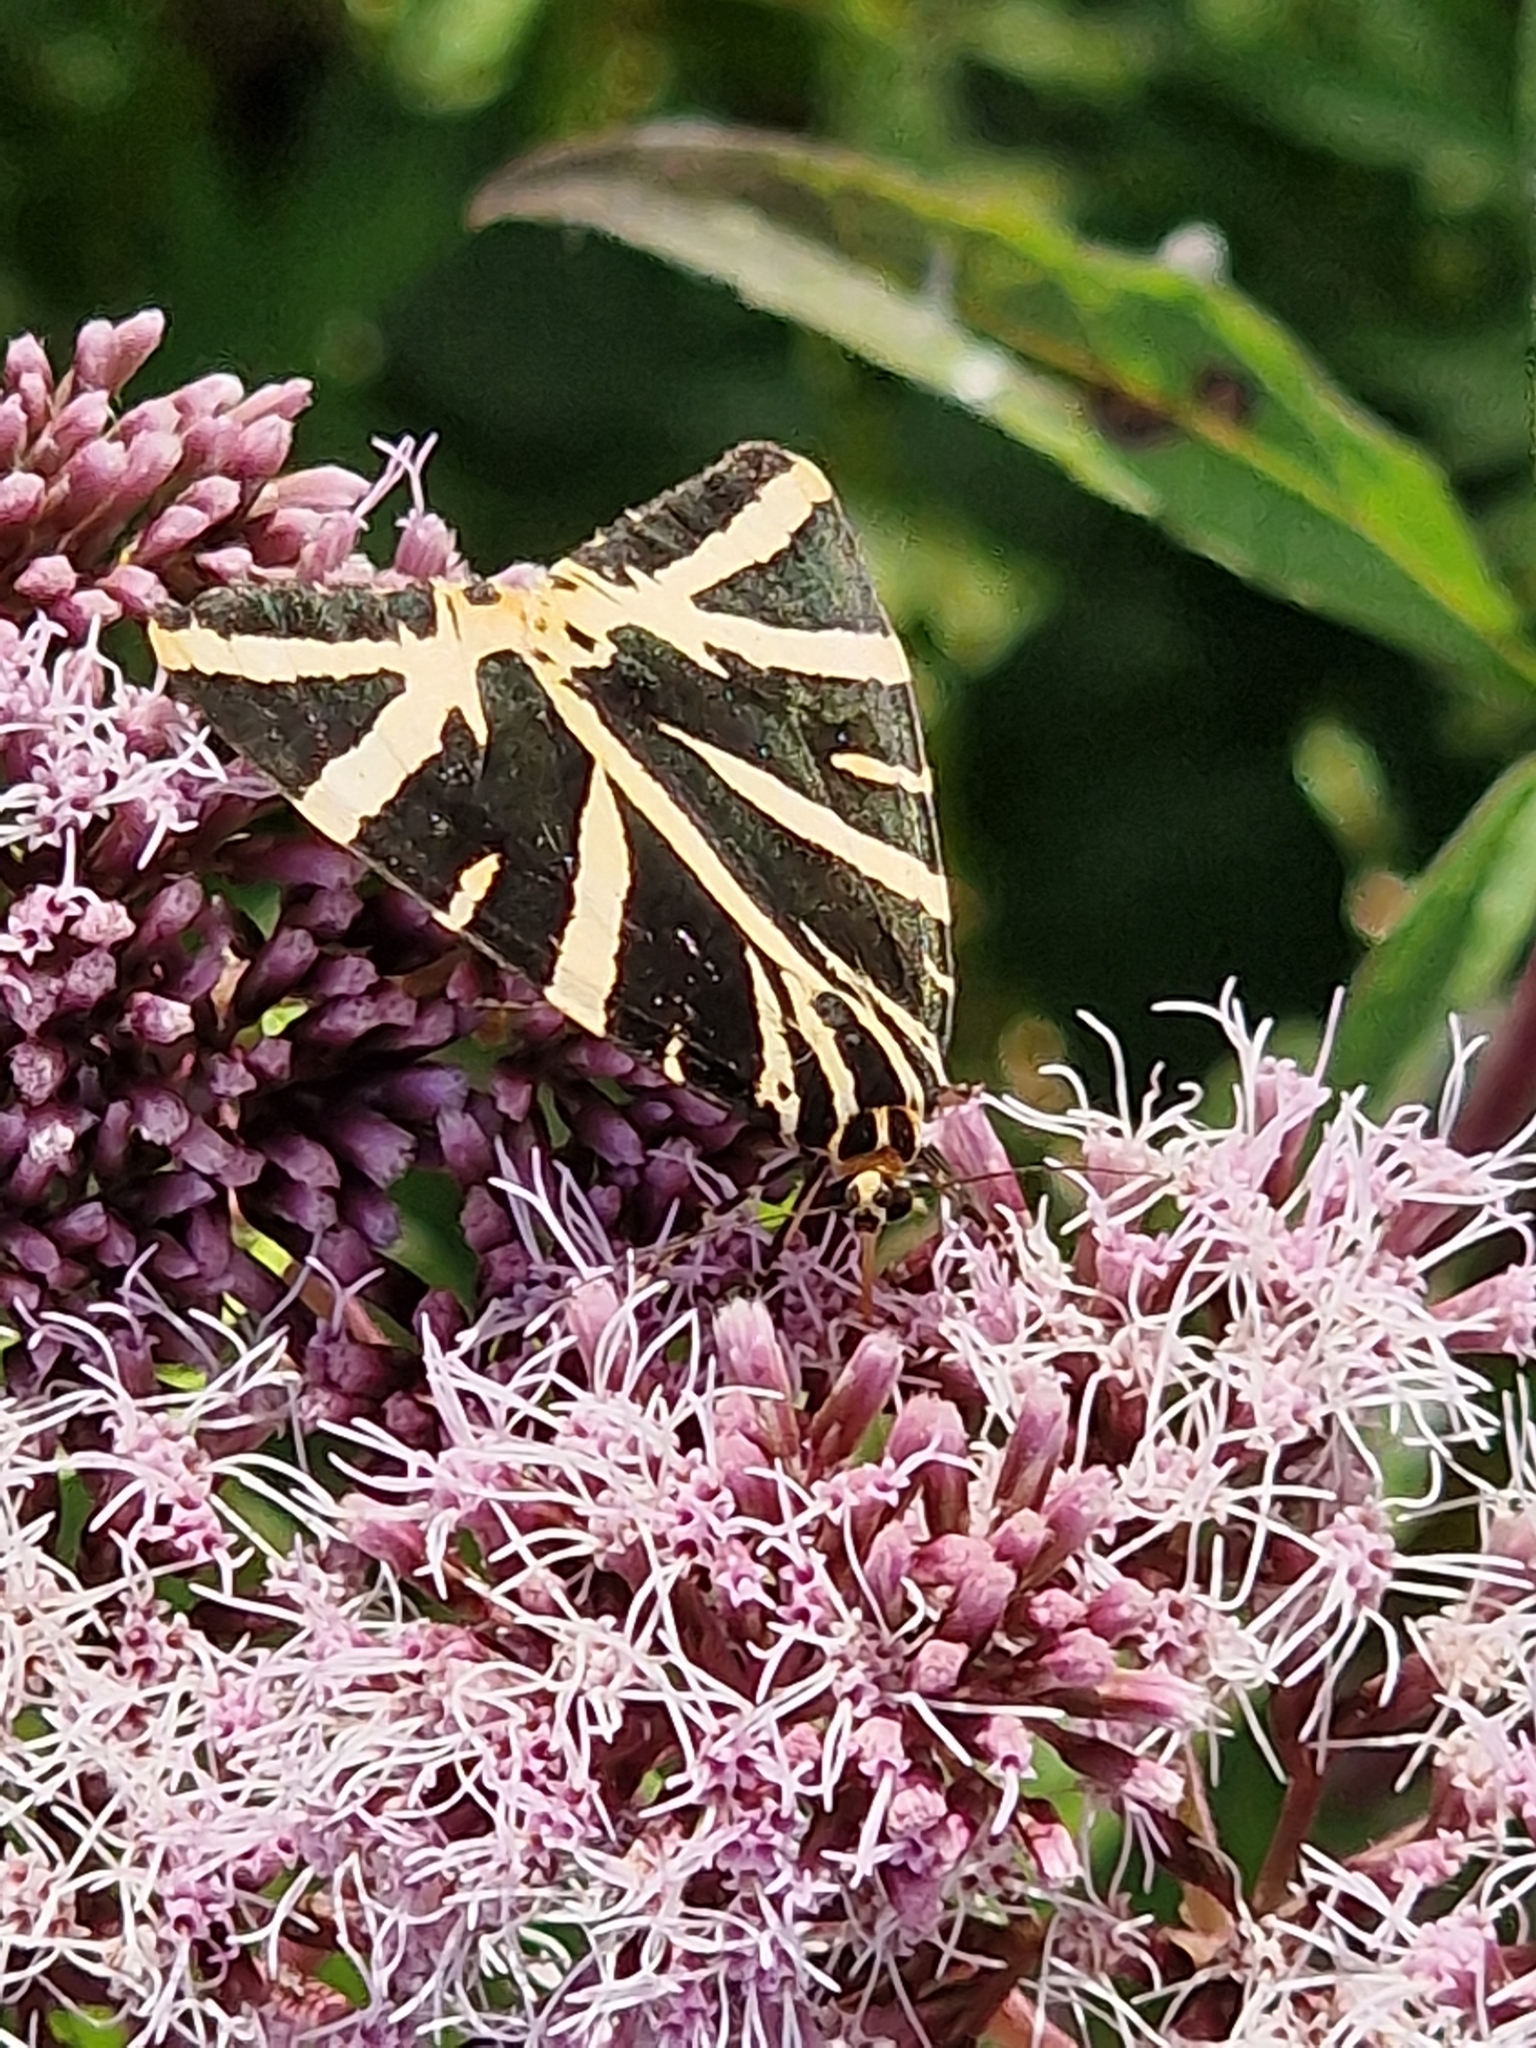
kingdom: Animalia
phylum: Arthropoda
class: Insecta
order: Lepidoptera
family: Erebidae
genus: Euplagia
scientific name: Euplagia quadripunctaria
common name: Jersey tiger
